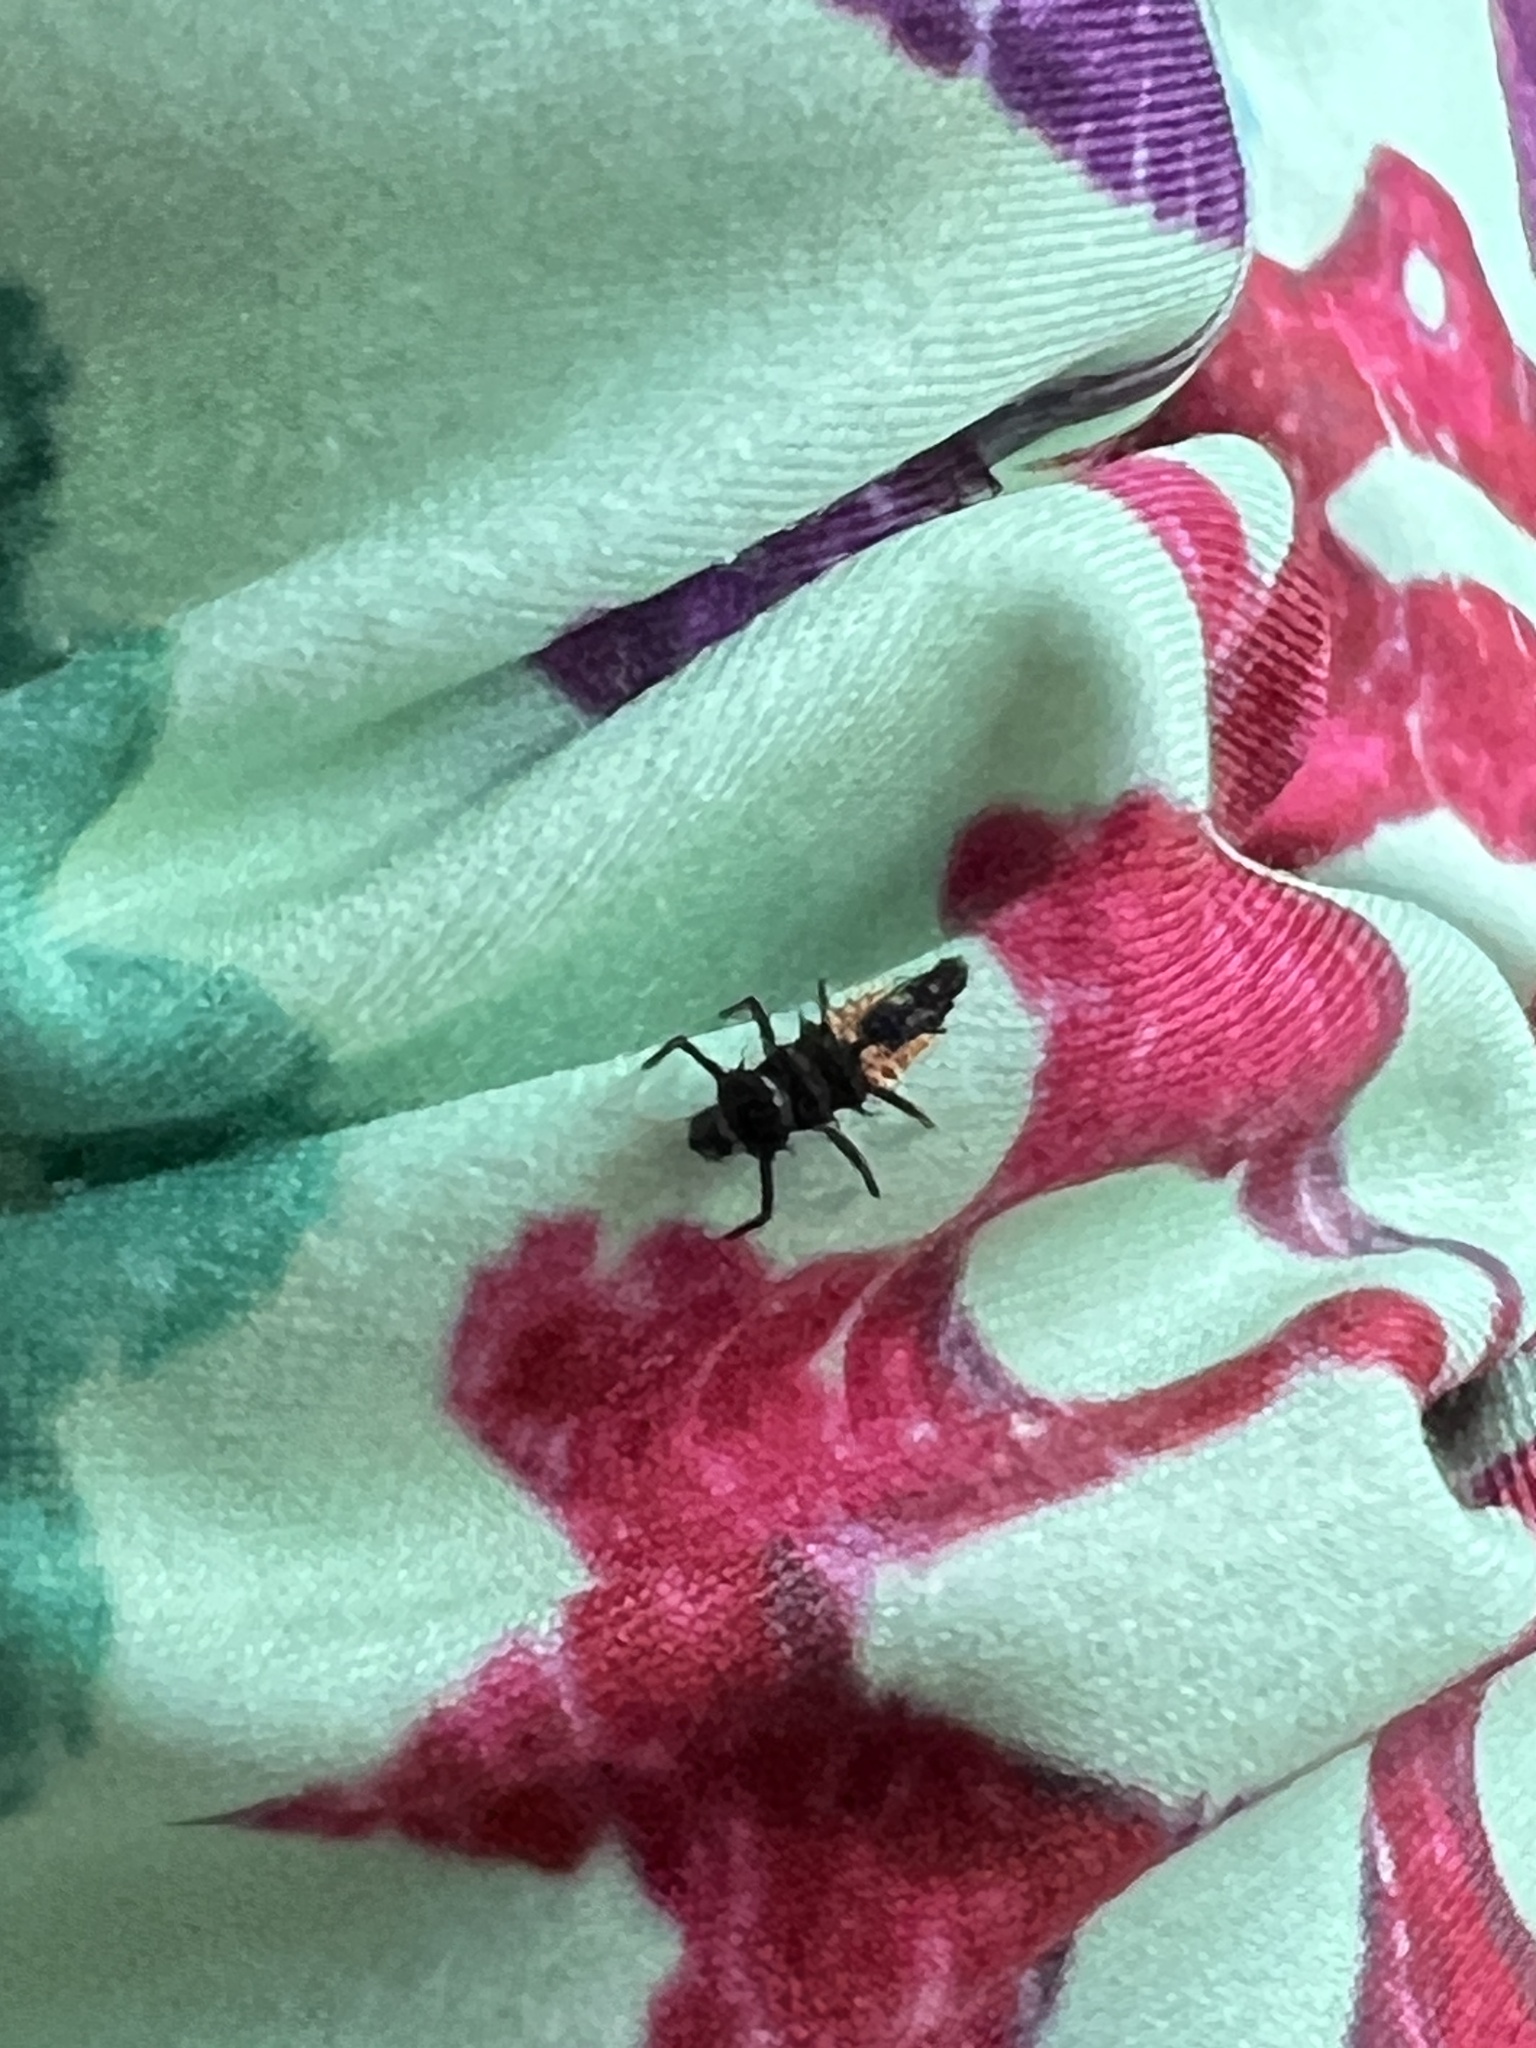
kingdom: Animalia
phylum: Arthropoda
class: Insecta
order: Coleoptera
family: Coccinellidae
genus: Harmonia
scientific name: Harmonia axyridis
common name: Harlequin ladybird
